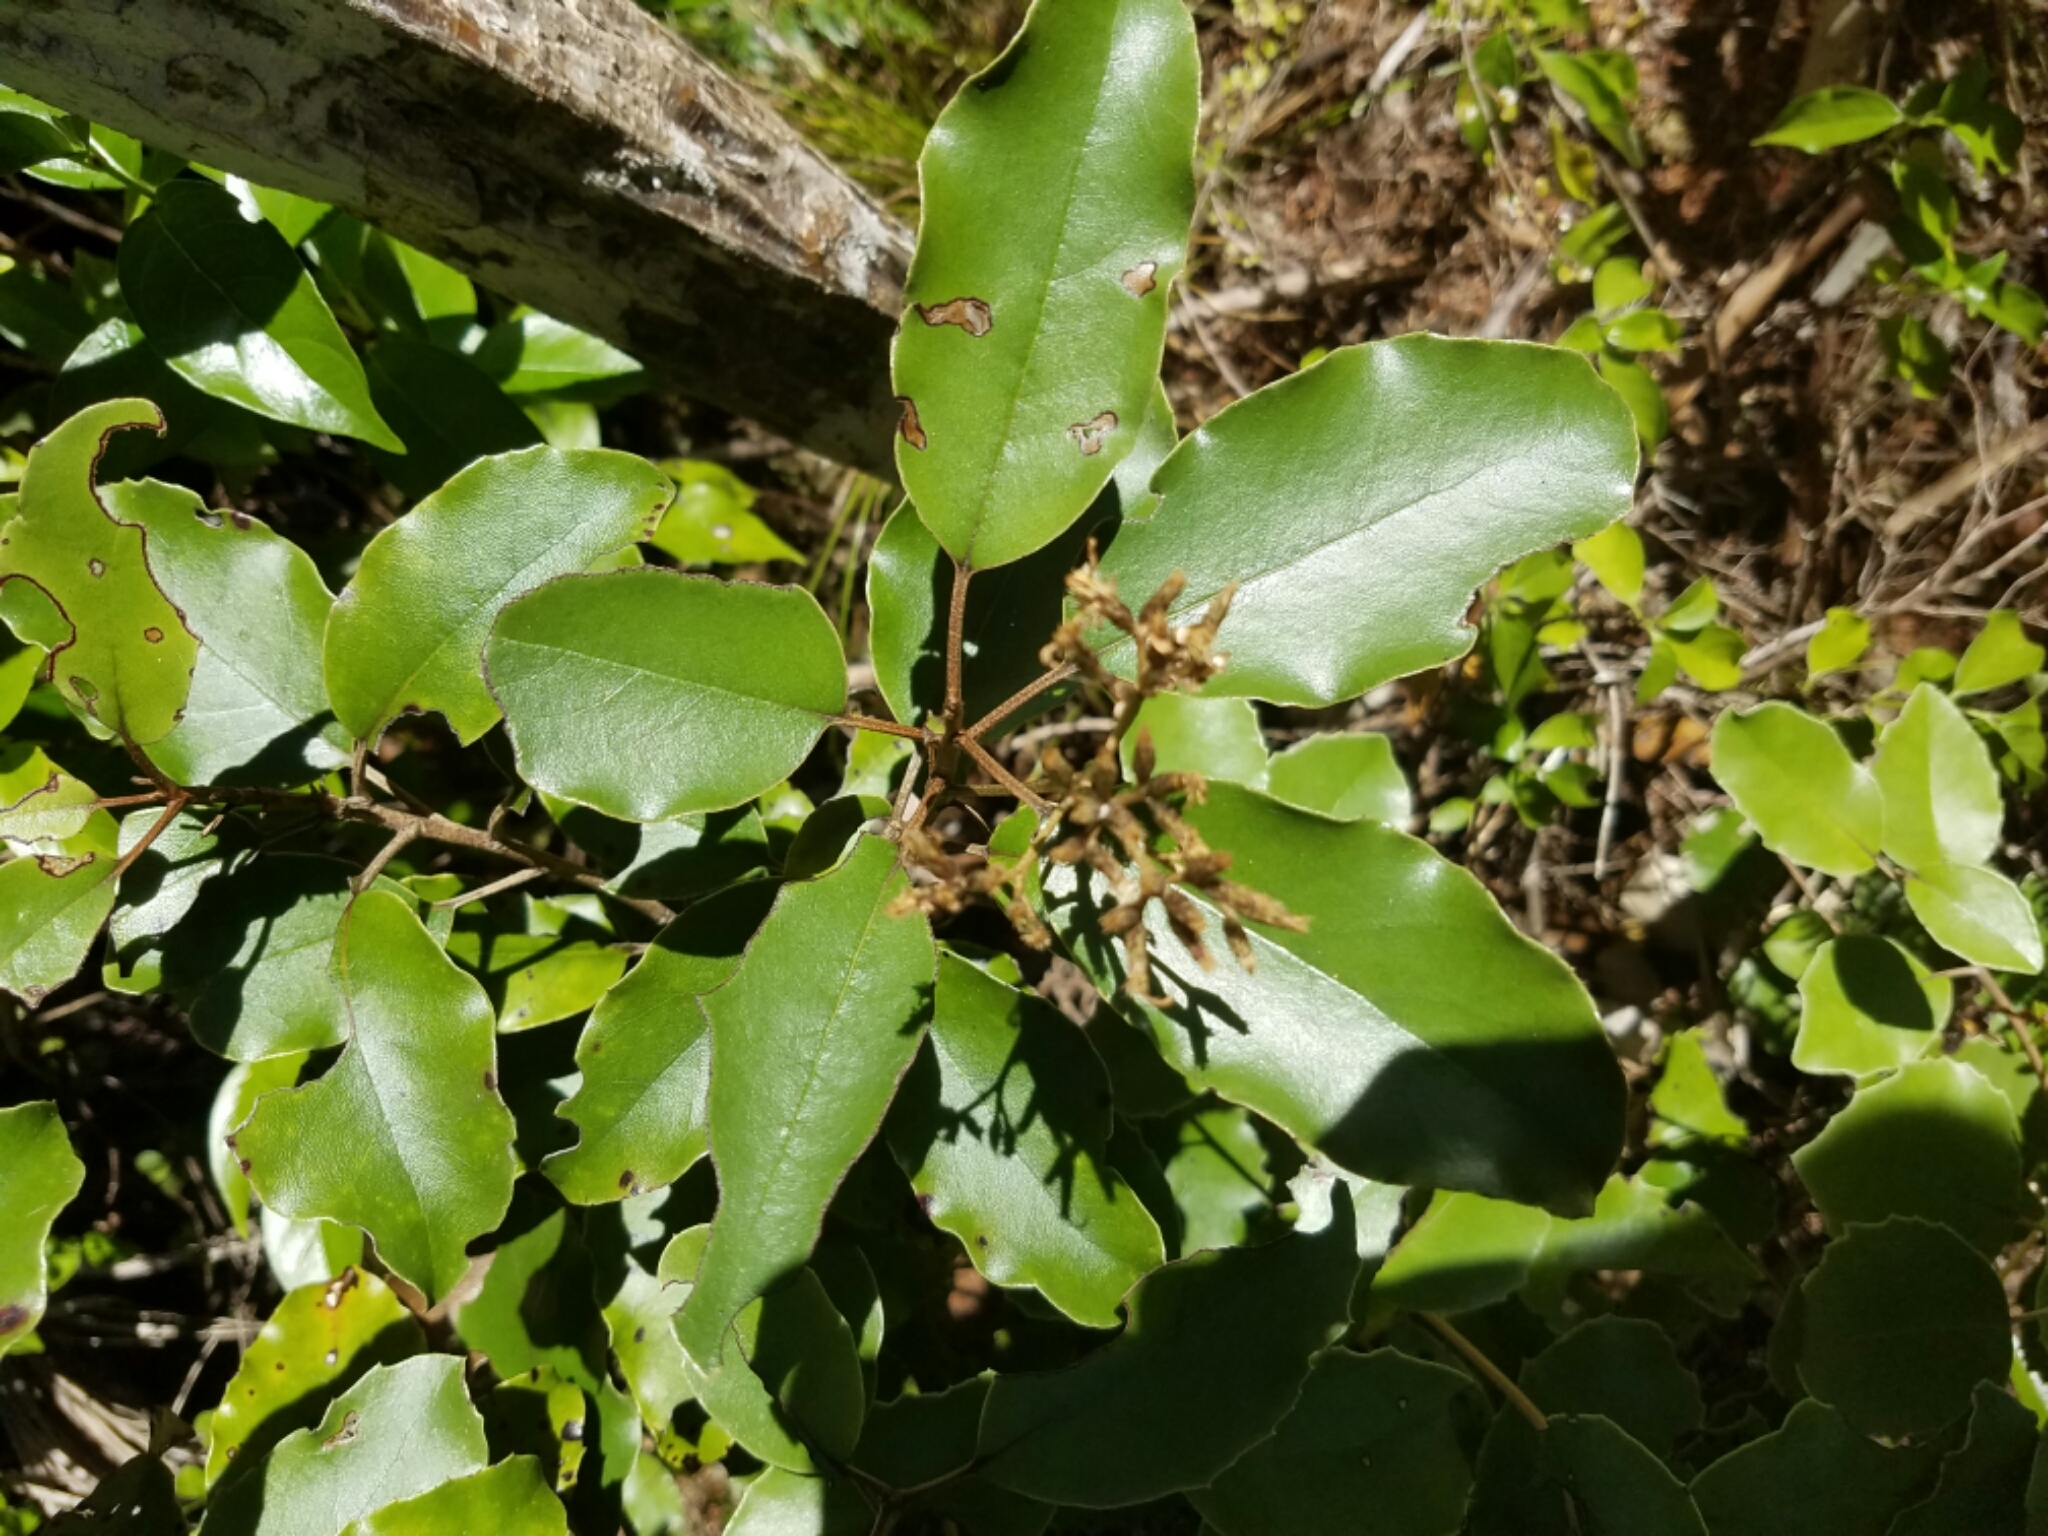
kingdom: Plantae
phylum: Tracheophyta
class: Magnoliopsida
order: Asterales
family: Asteraceae
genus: Olearia
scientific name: Olearia furfuracea
